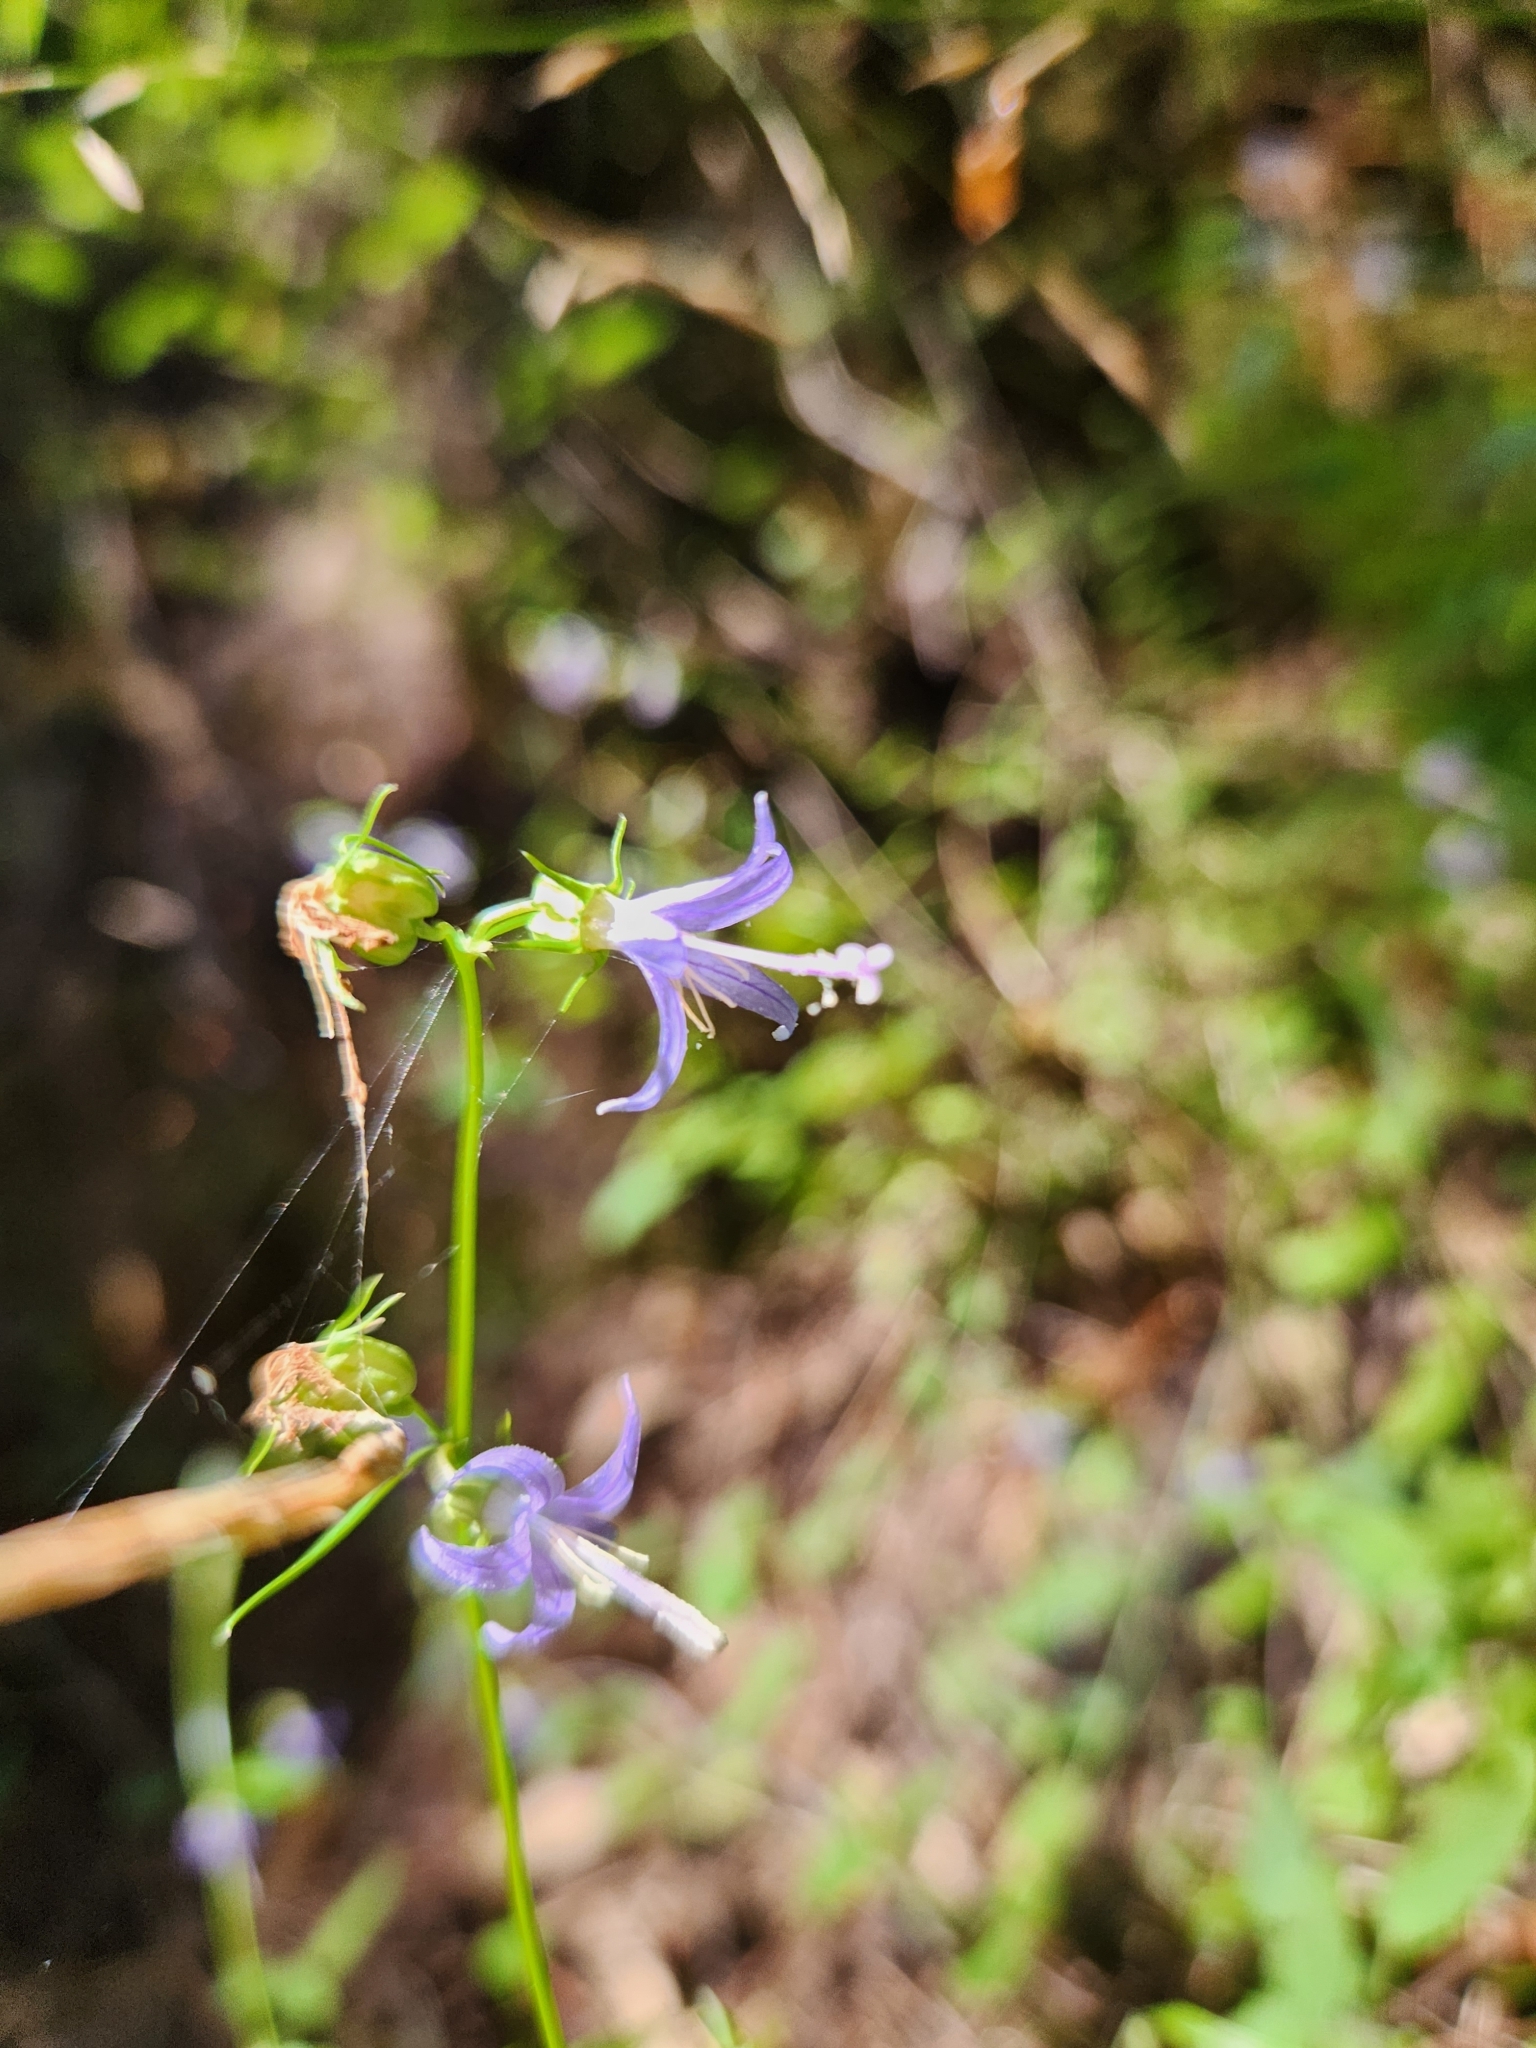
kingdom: Plantae
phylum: Tracheophyta
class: Magnoliopsida
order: Asterales
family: Campanulaceae
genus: Smithiastrum
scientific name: Smithiastrum prenanthoides
